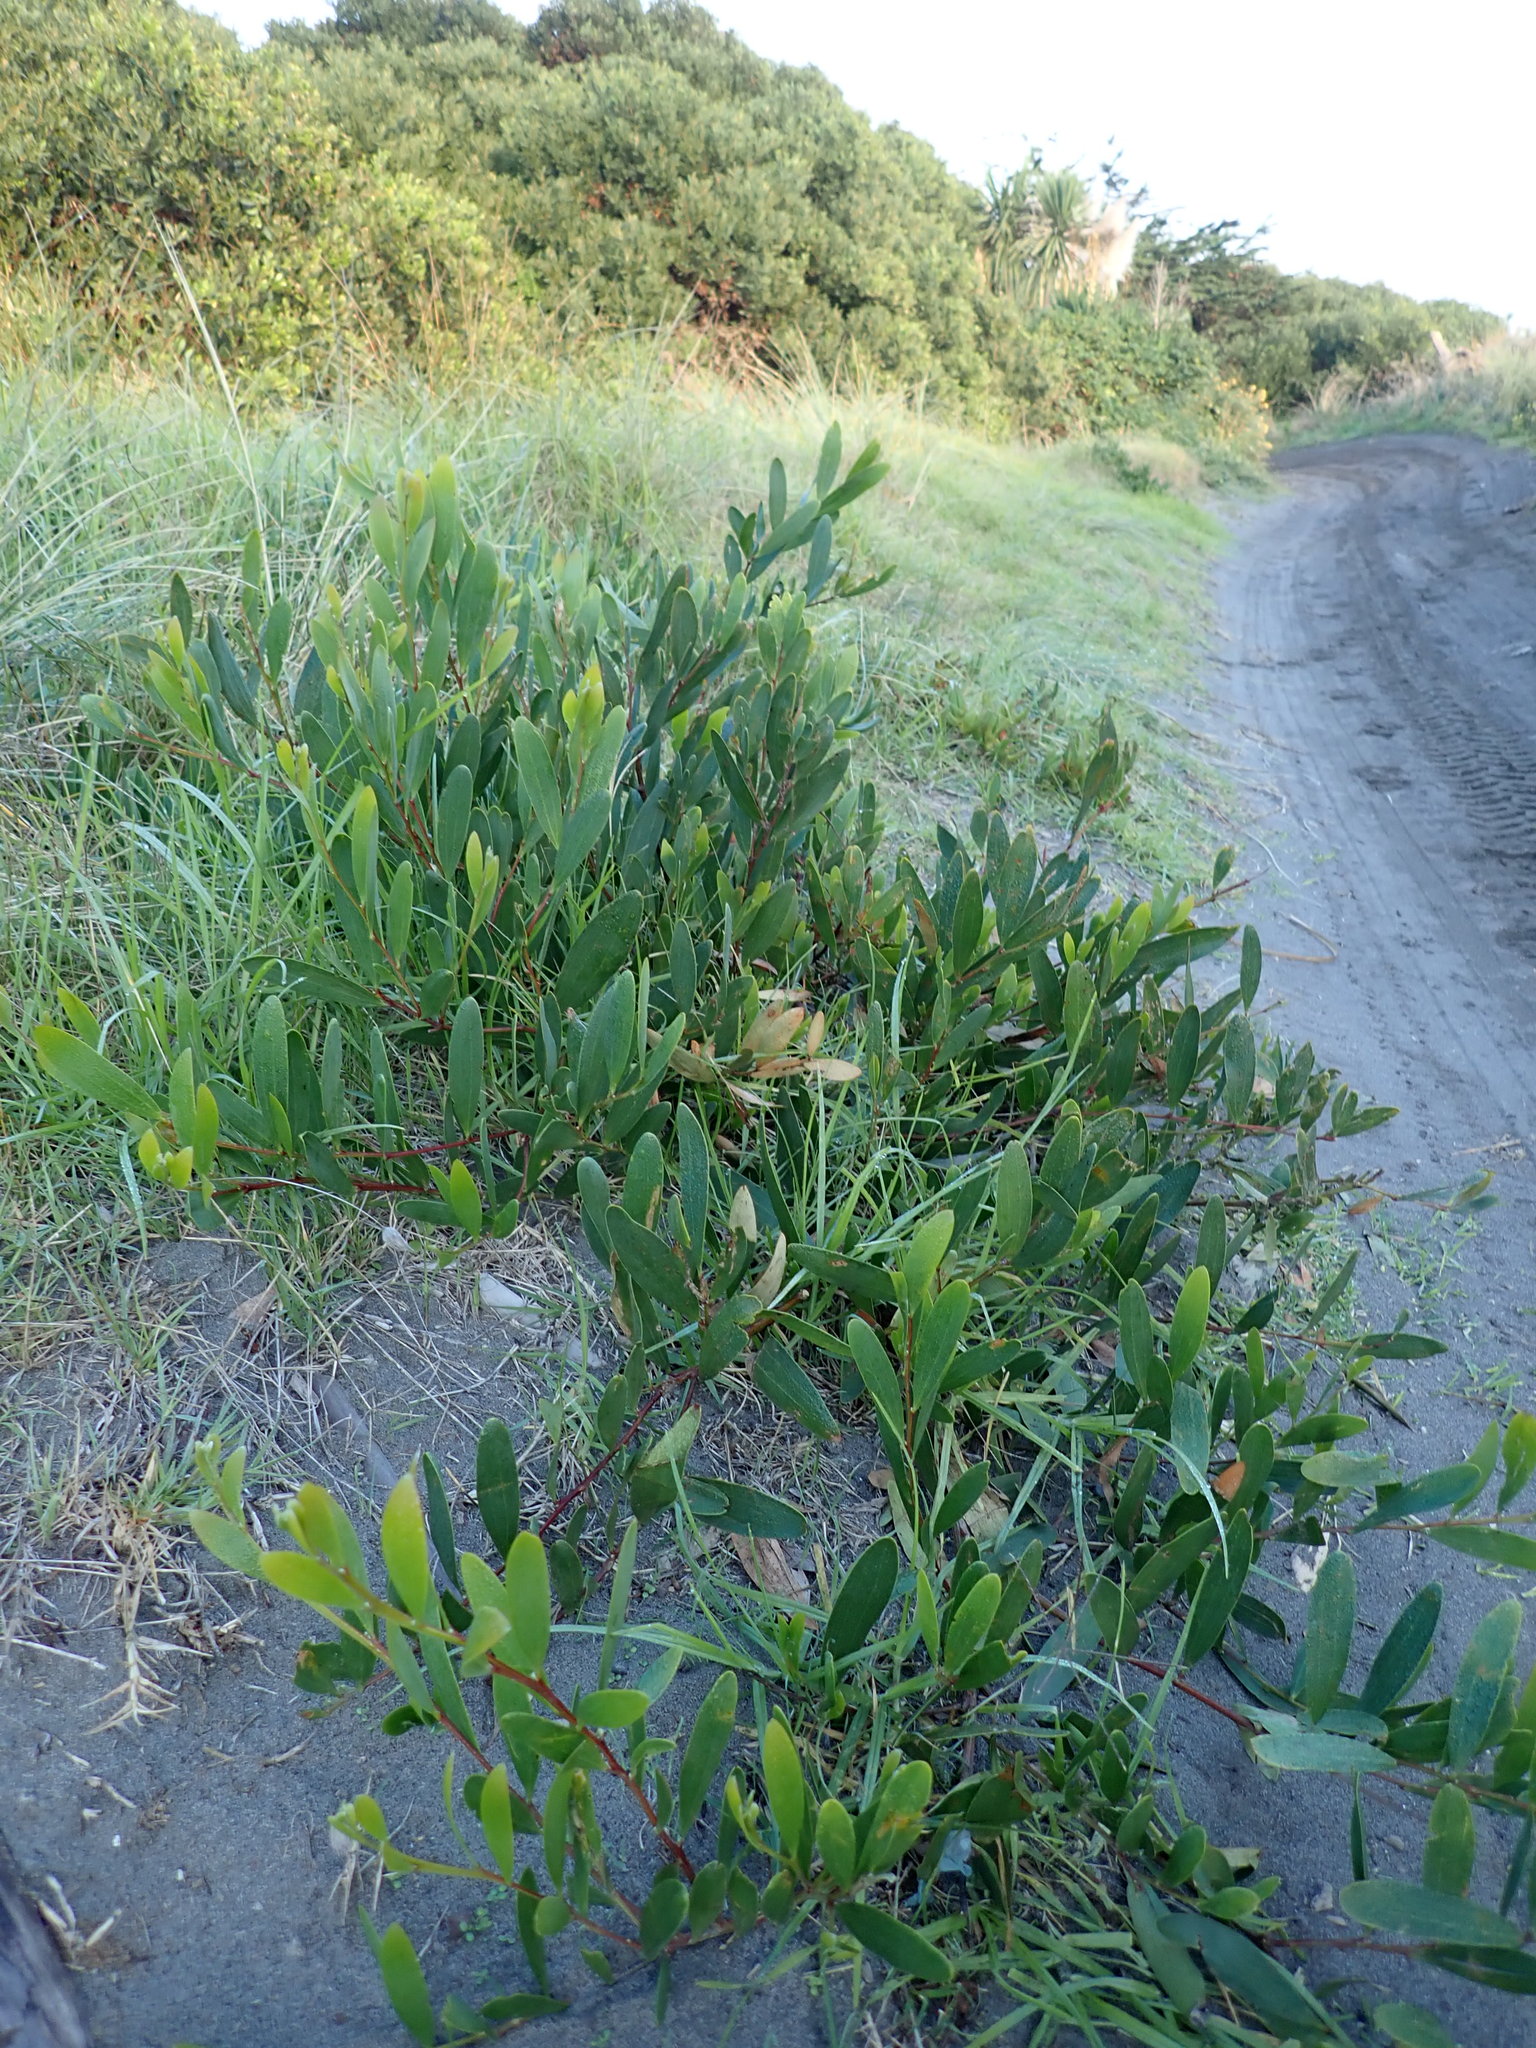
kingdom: Plantae
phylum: Tracheophyta
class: Magnoliopsida
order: Fabales
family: Fabaceae
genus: Acacia
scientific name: Acacia longifolia
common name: Sydney golden wattle
